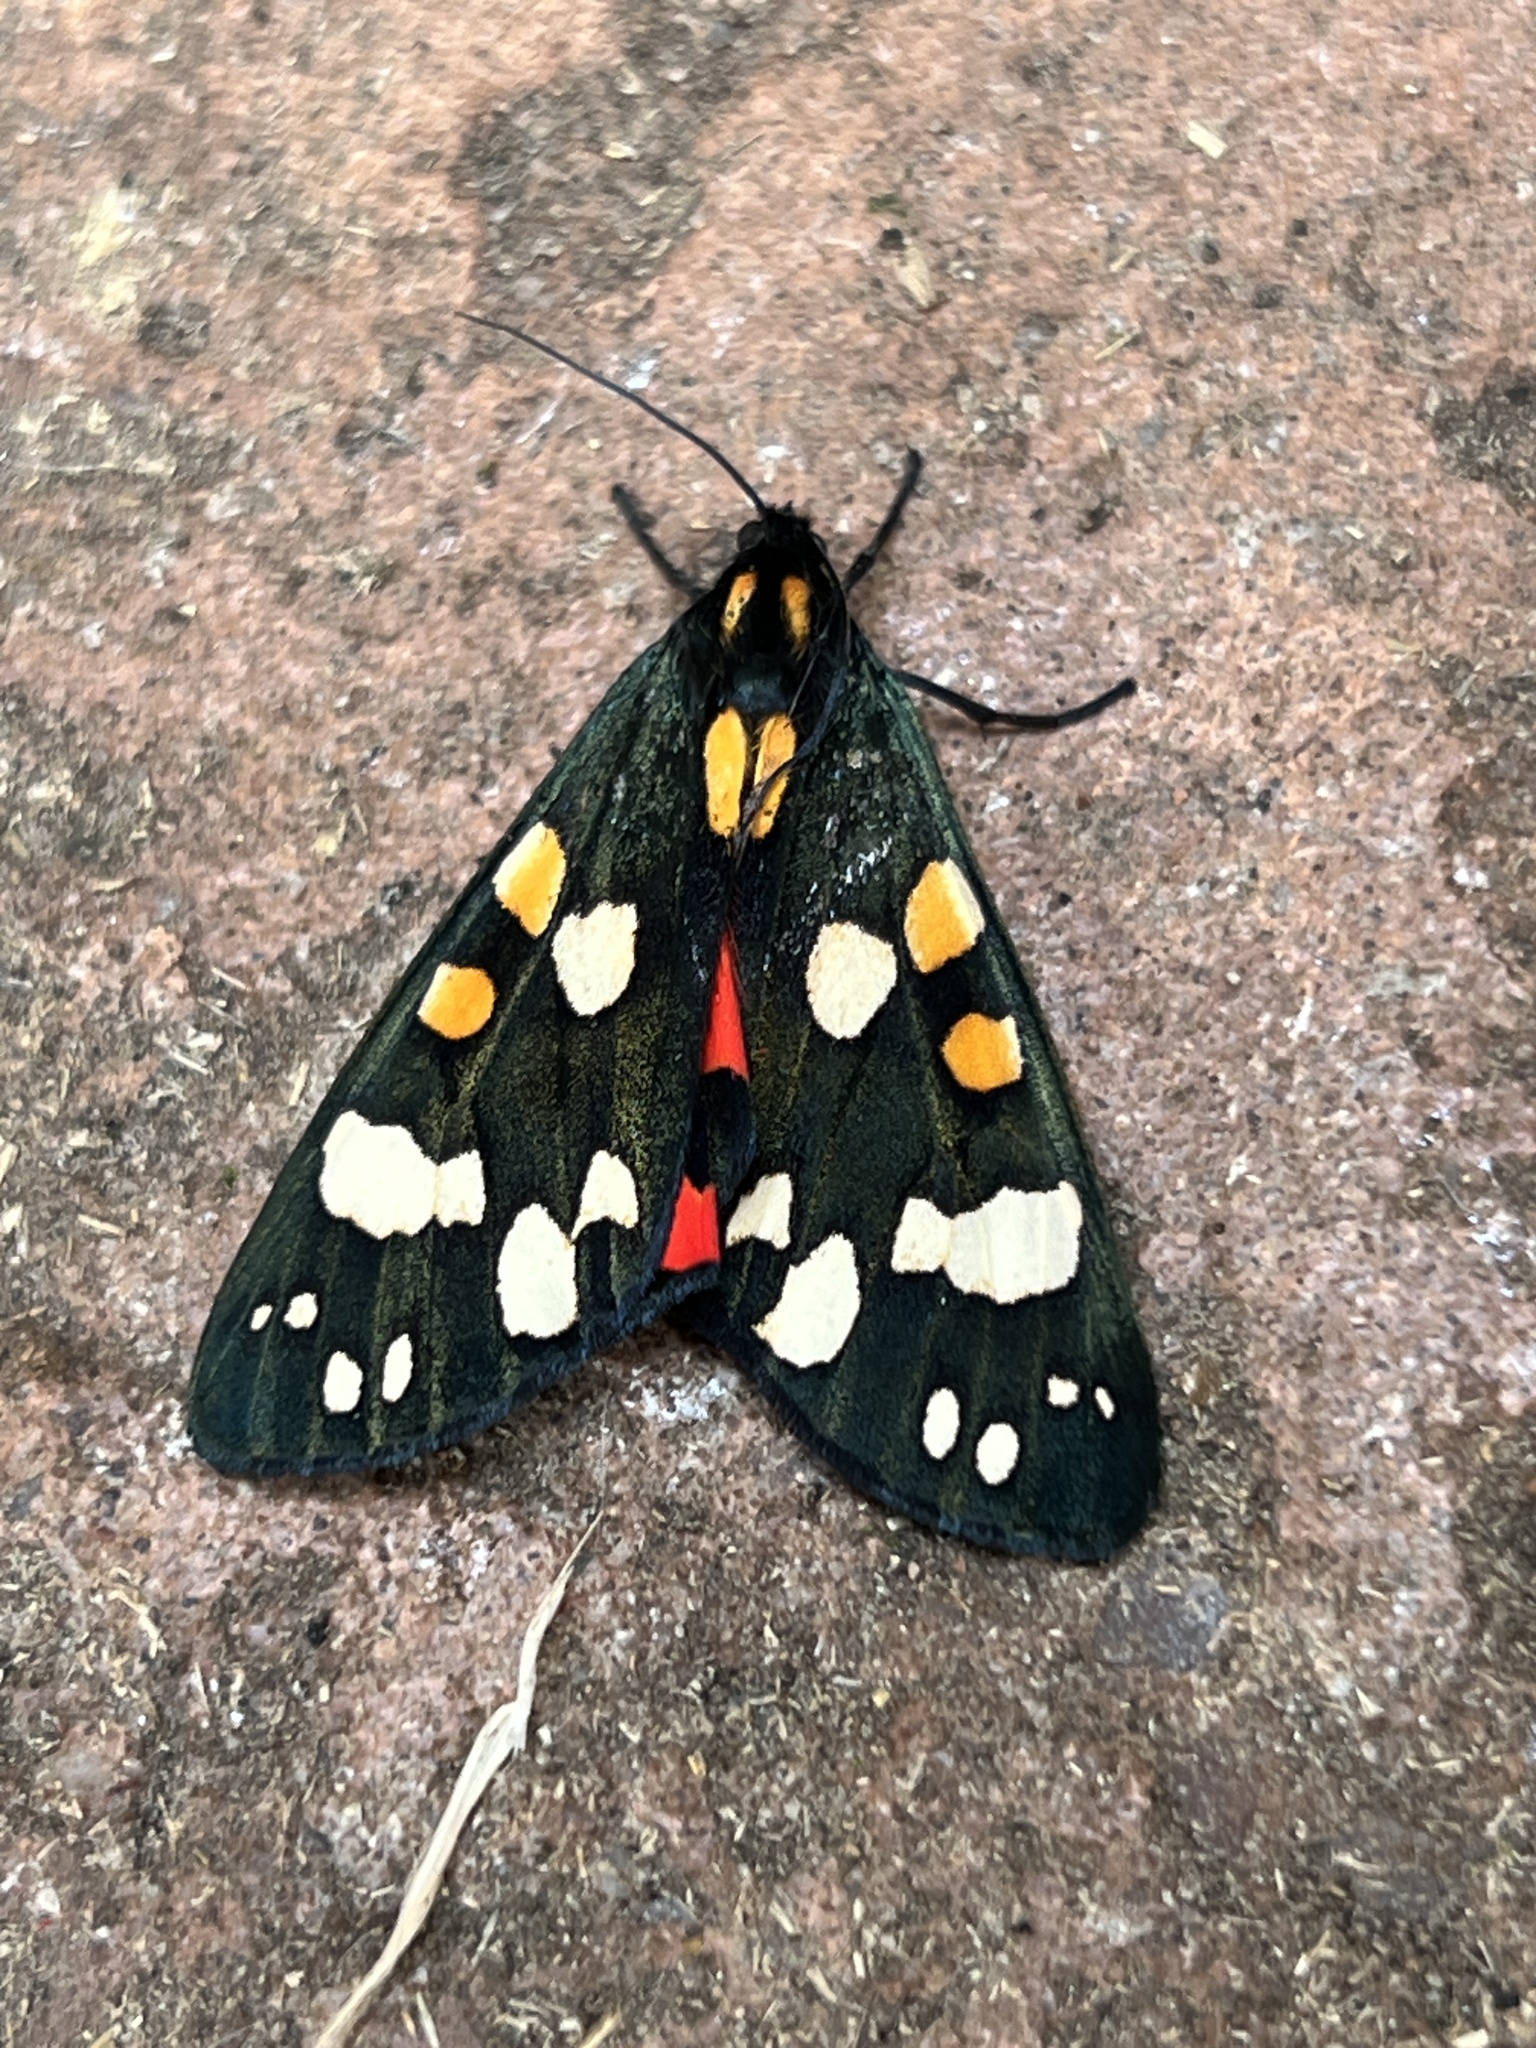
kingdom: Animalia
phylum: Arthropoda
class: Insecta
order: Lepidoptera
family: Erebidae
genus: Callimorpha
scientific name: Callimorpha dominula
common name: Scarlet tiger
